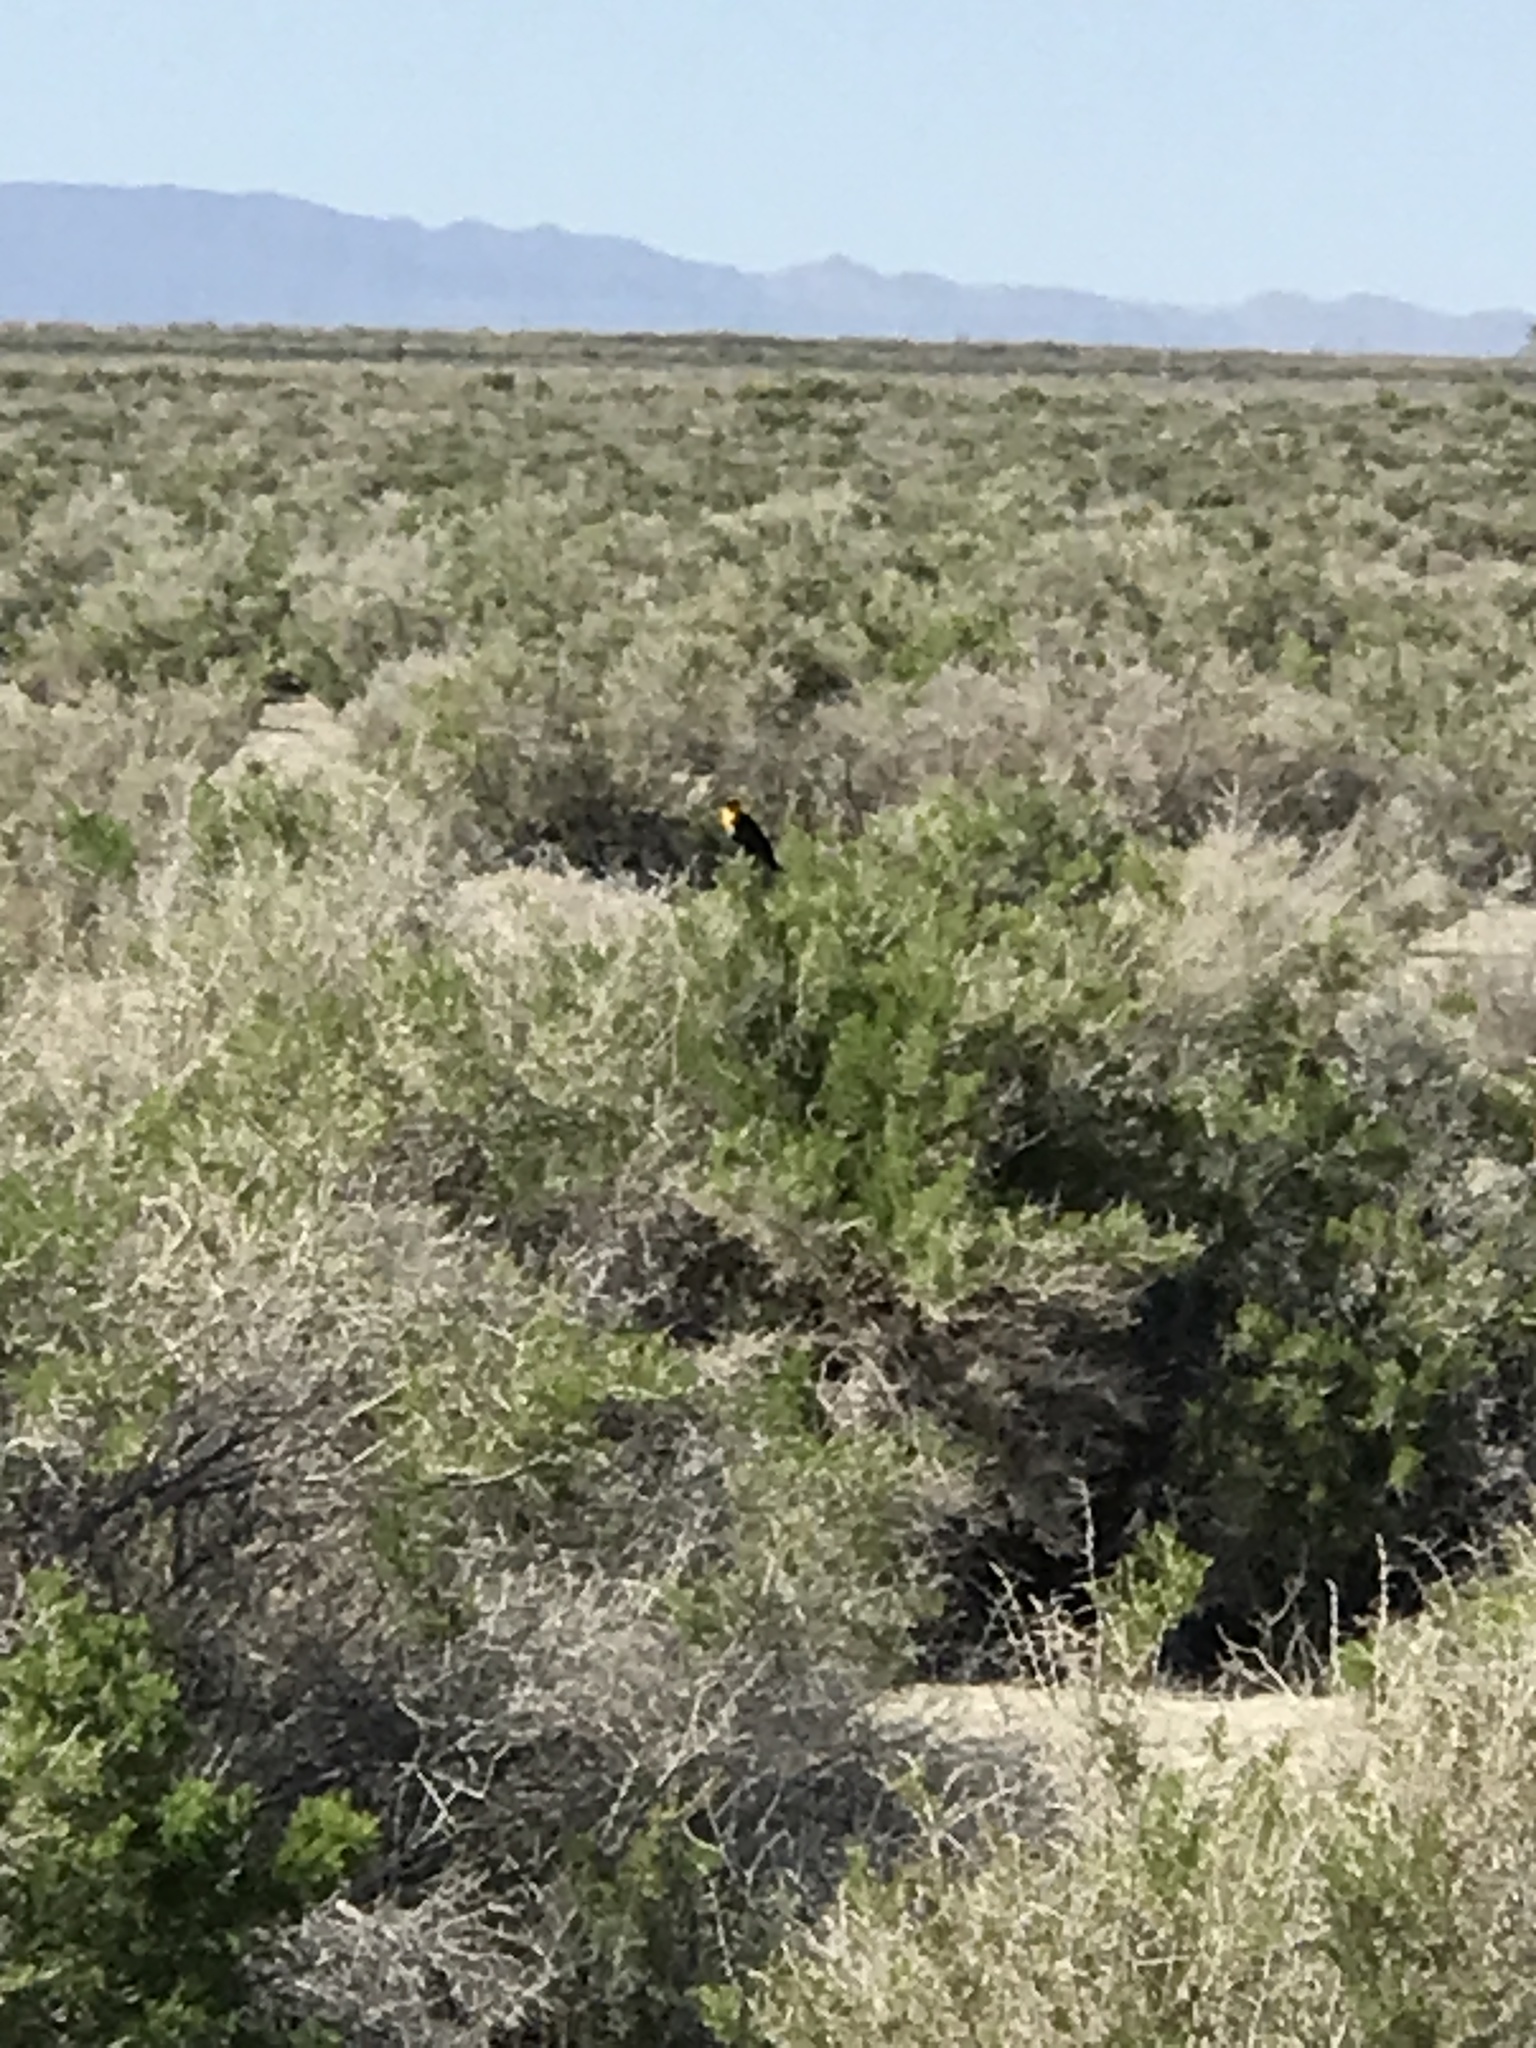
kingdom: Animalia
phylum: Chordata
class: Aves
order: Passeriformes
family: Icteridae
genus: Xanthocephalus
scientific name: Xanthocephalus xanthocephalus
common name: Yellow-headed blackbird
